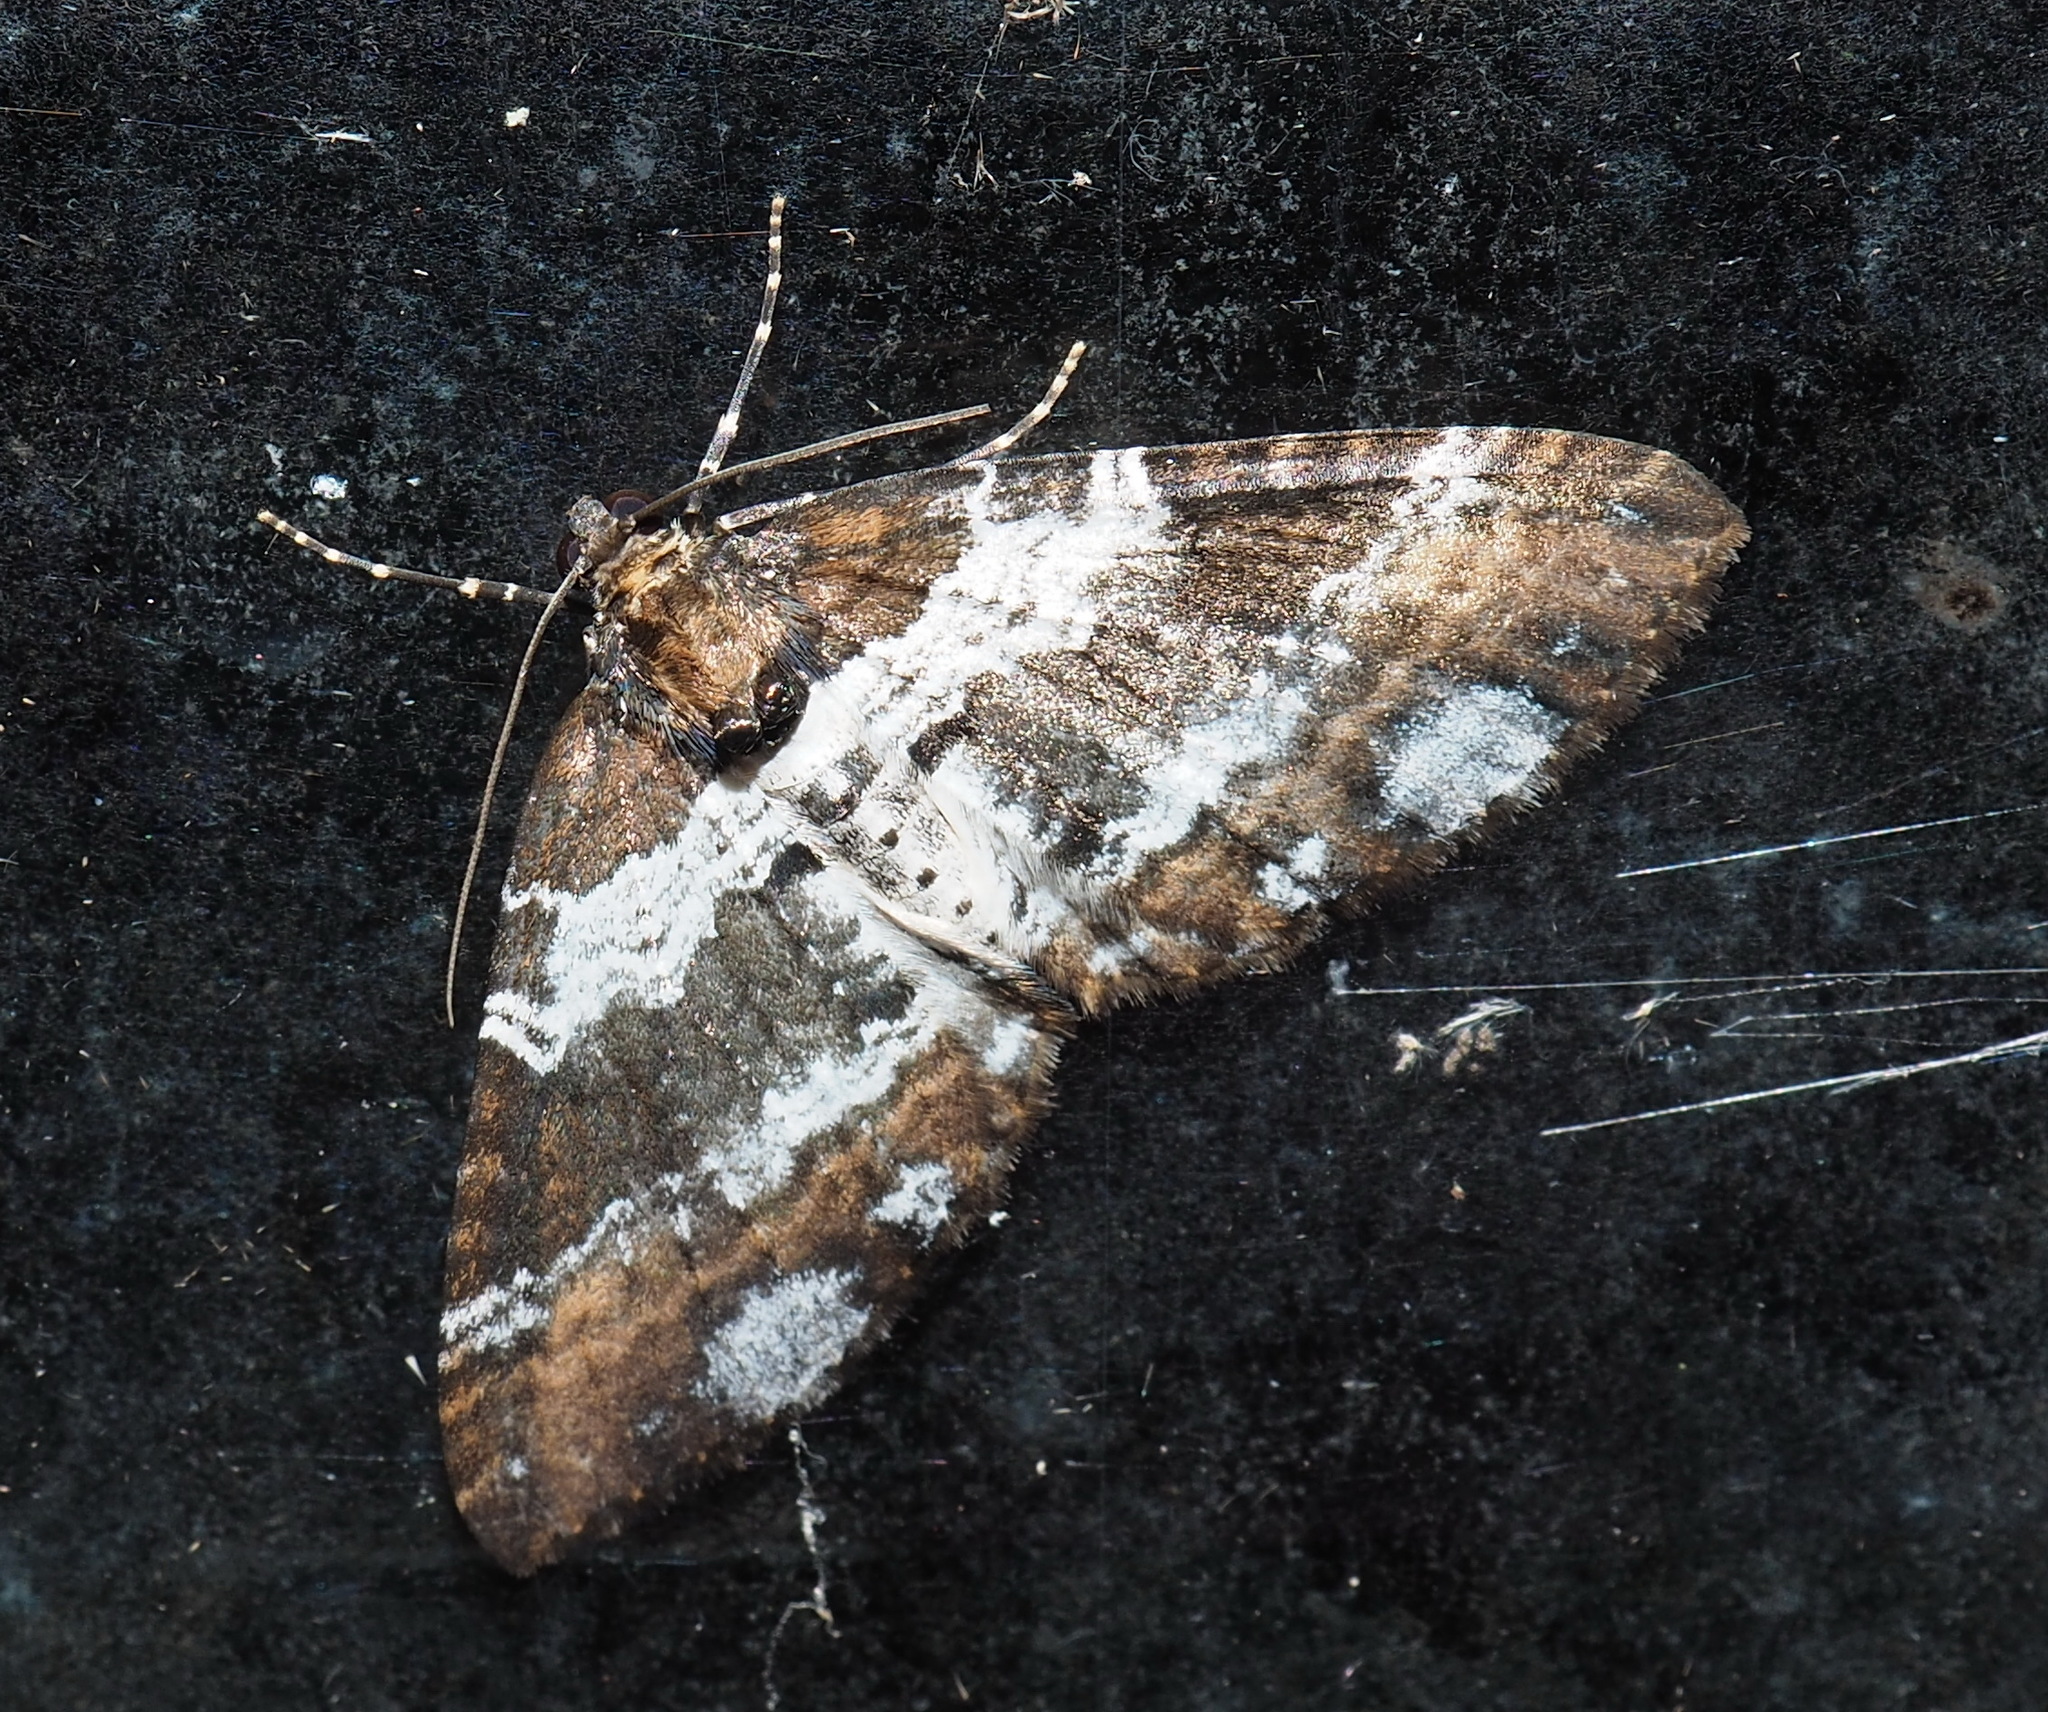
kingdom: Animalia
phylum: Arthropoda
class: Insecta
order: Lepidoptera
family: Geometridae
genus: Melanthia
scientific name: Melanthia procellata
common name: Pretty chalk carpet
